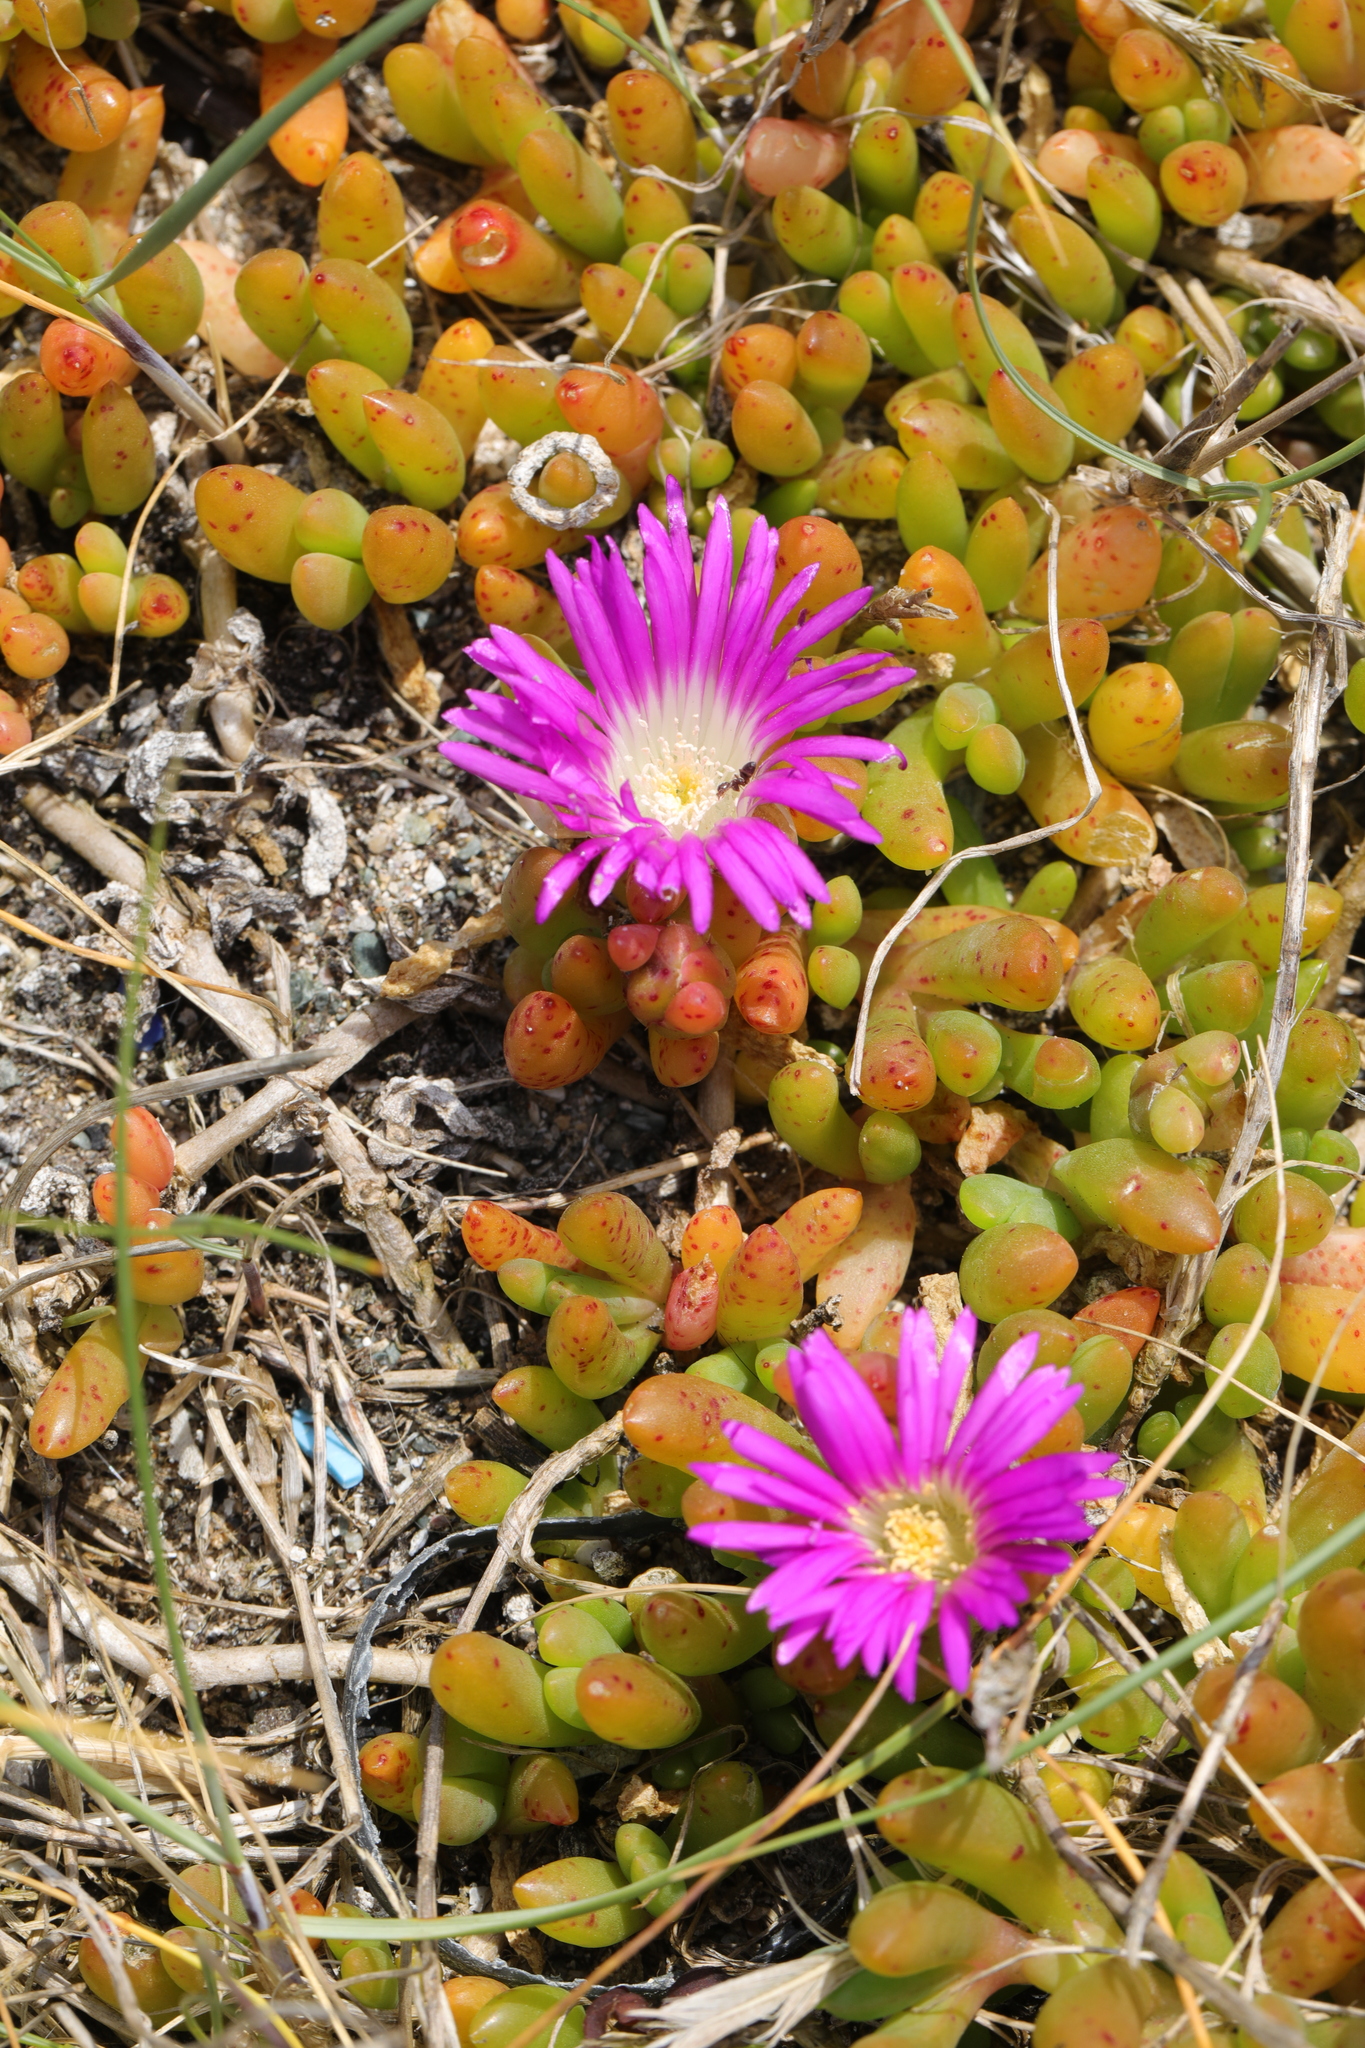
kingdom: Plantae
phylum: Tracheophyta
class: Magnoliopsida
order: Caryophyllales
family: Aizoaceae
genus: Disphyma
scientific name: Disphyma crassifolium
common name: Purple dewplant
